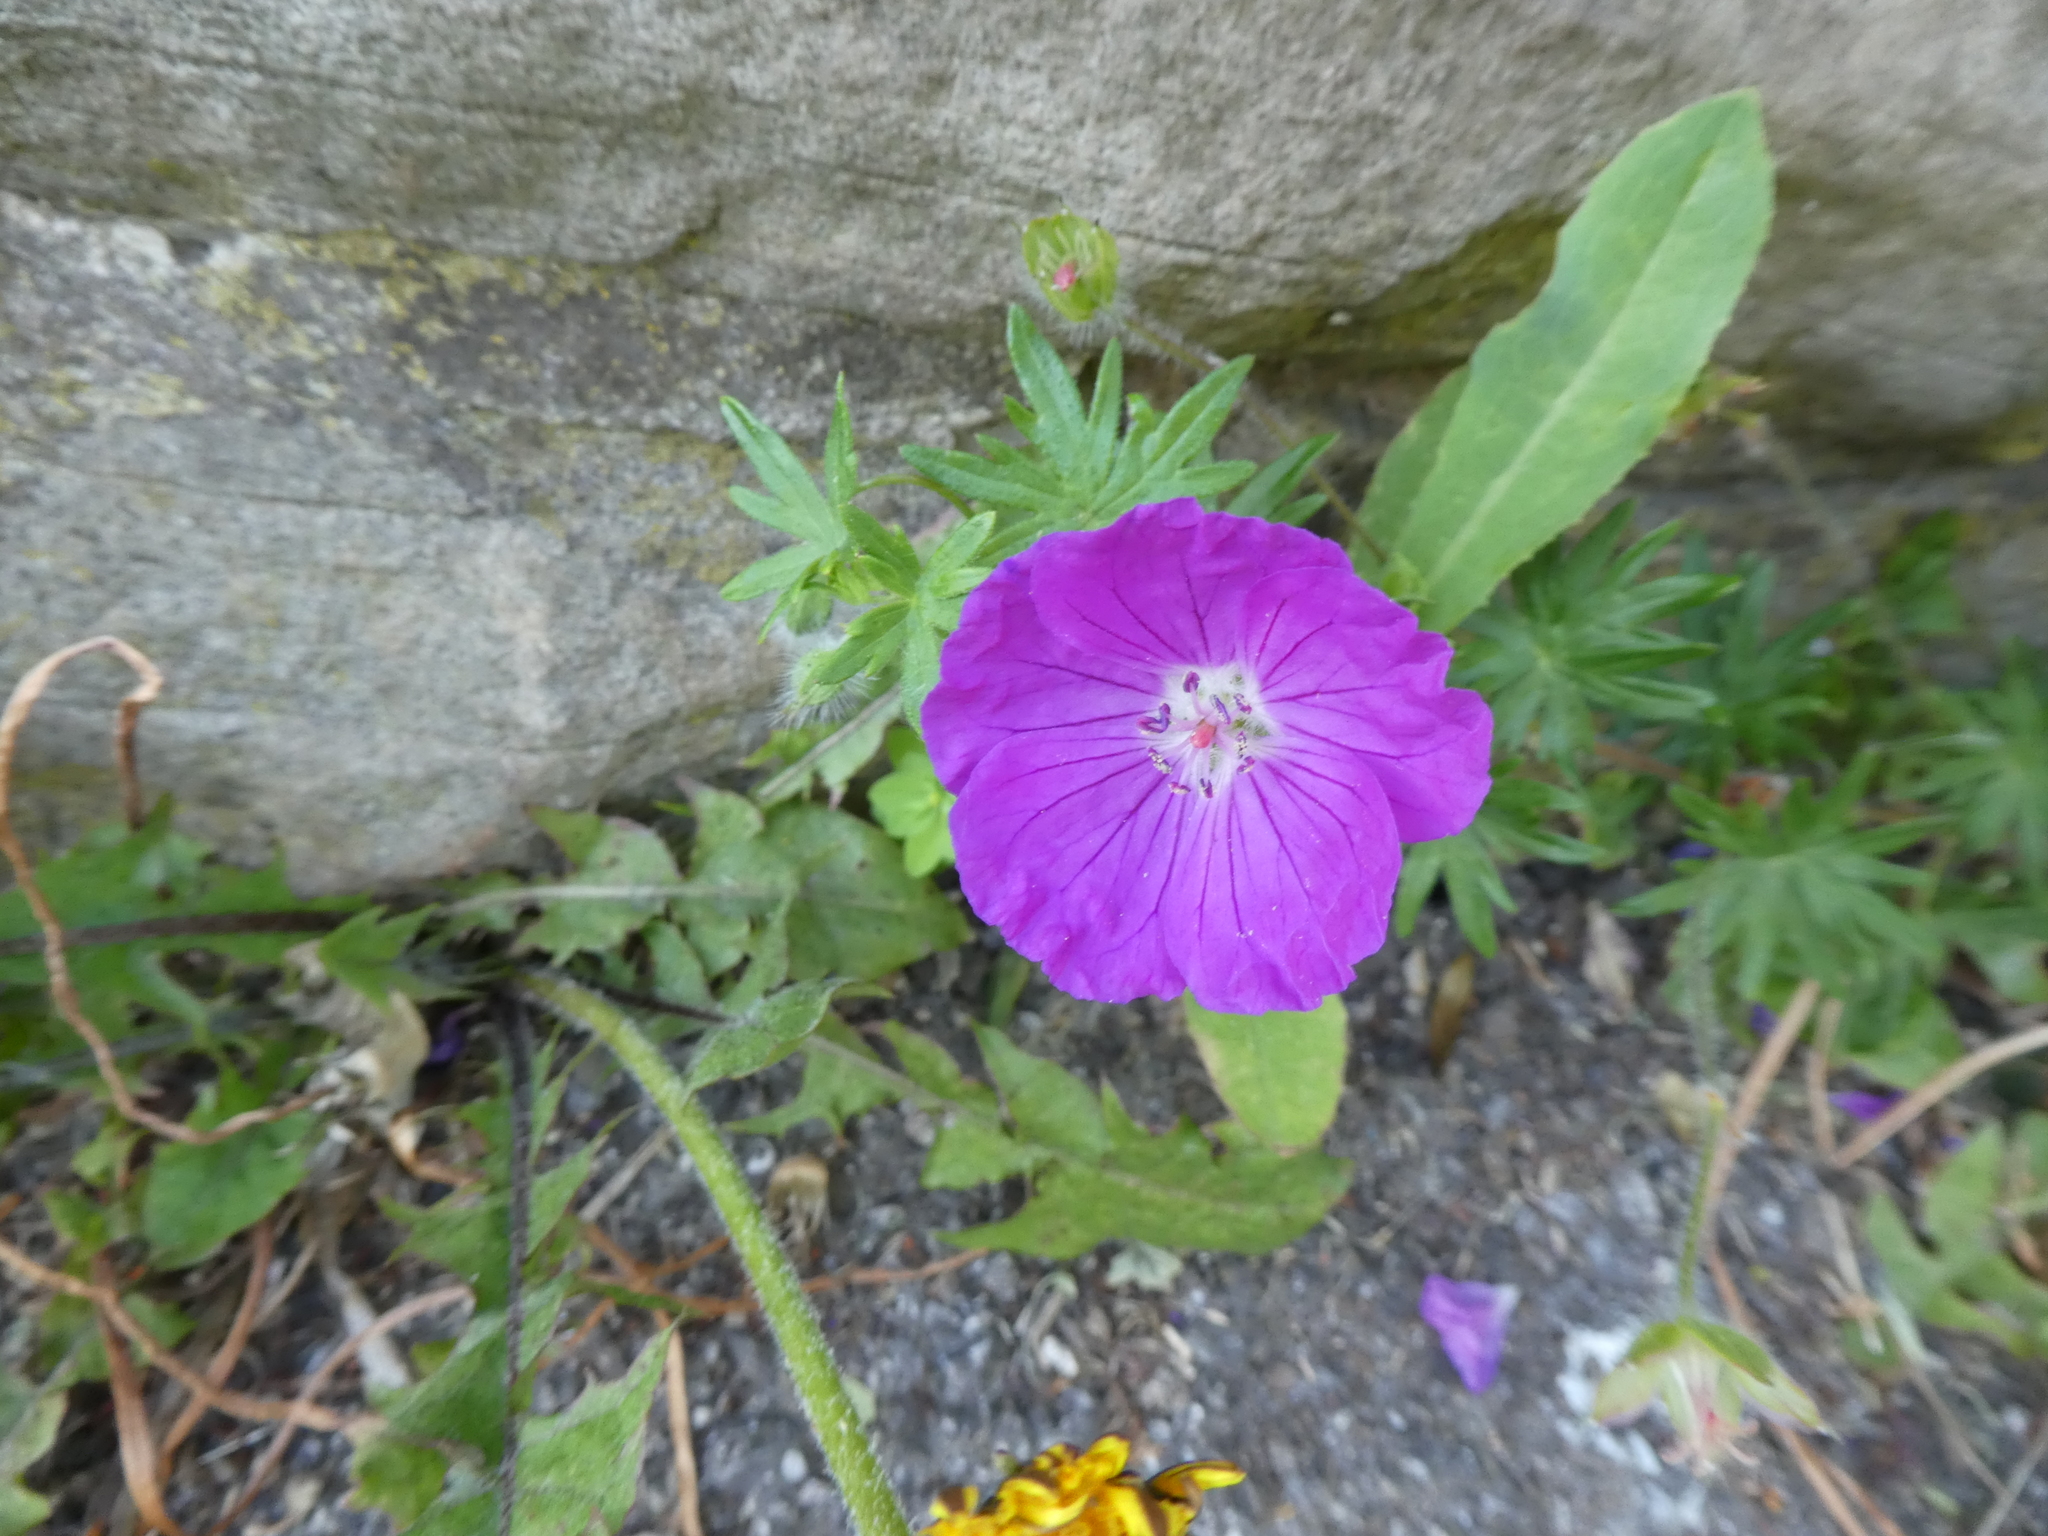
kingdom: Plantae
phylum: Tracheophyta
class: Magnoliopsida
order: Geraniales
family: Geraniaceae
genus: Geranium
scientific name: Geranium sanguineum
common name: Bloody crane's-bill
